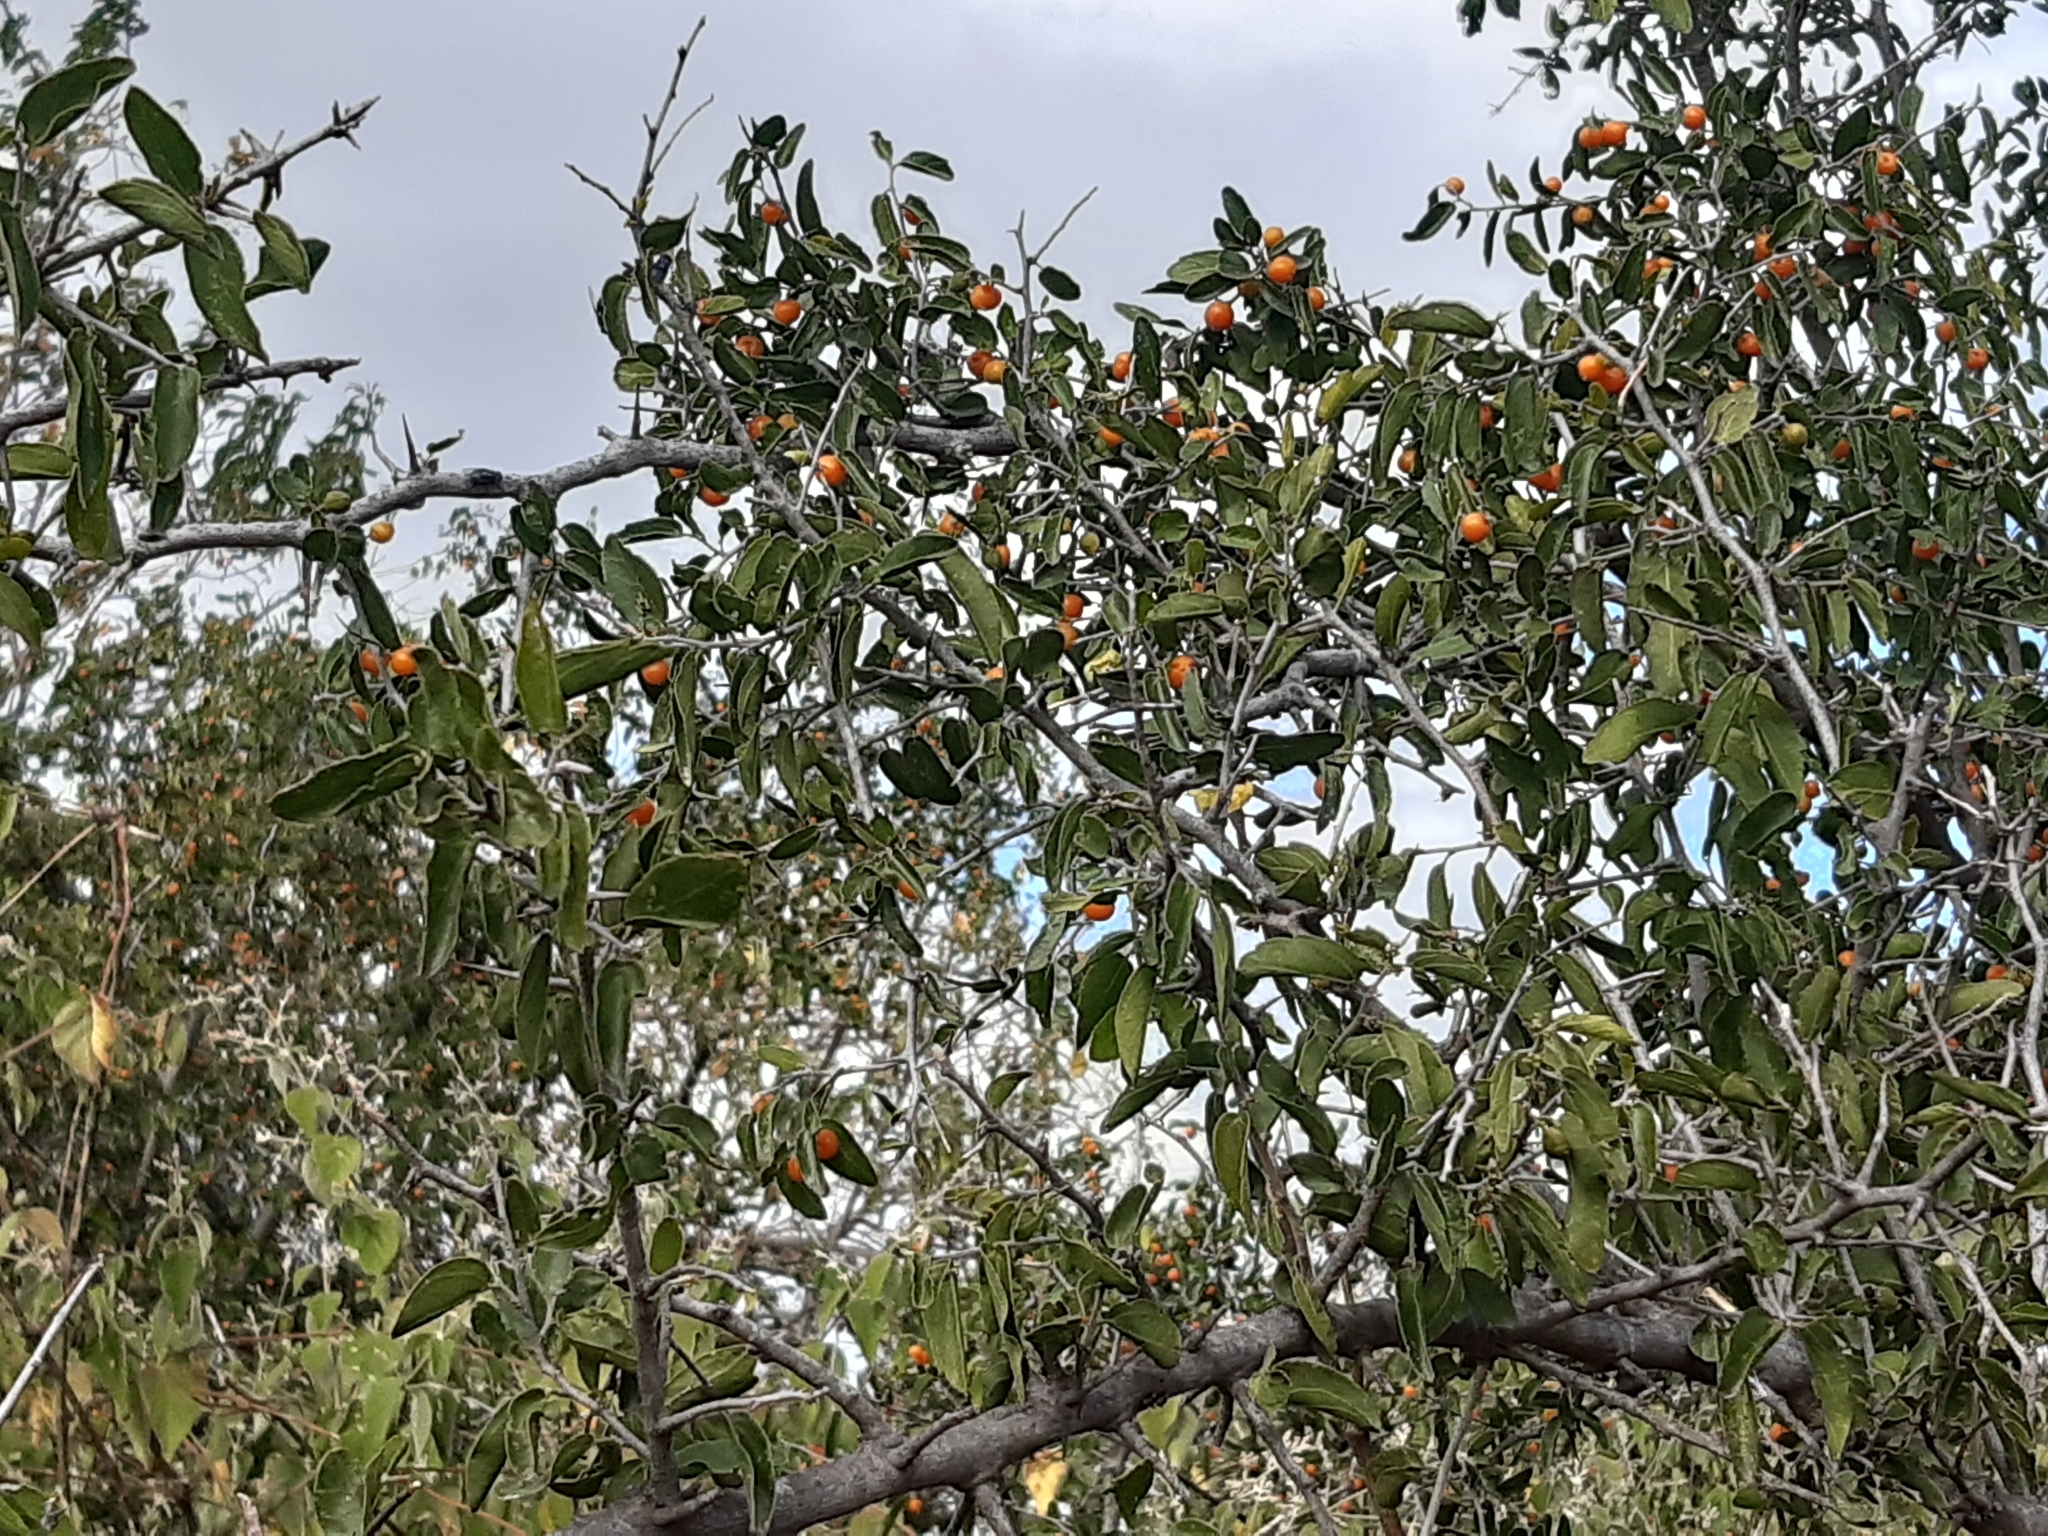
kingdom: Plantae
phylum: Tracheophyta
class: Magnoliopsida
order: Rosales
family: Cannabaceae
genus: Celtis
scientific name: Celtis pallida
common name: Desert hackberry
